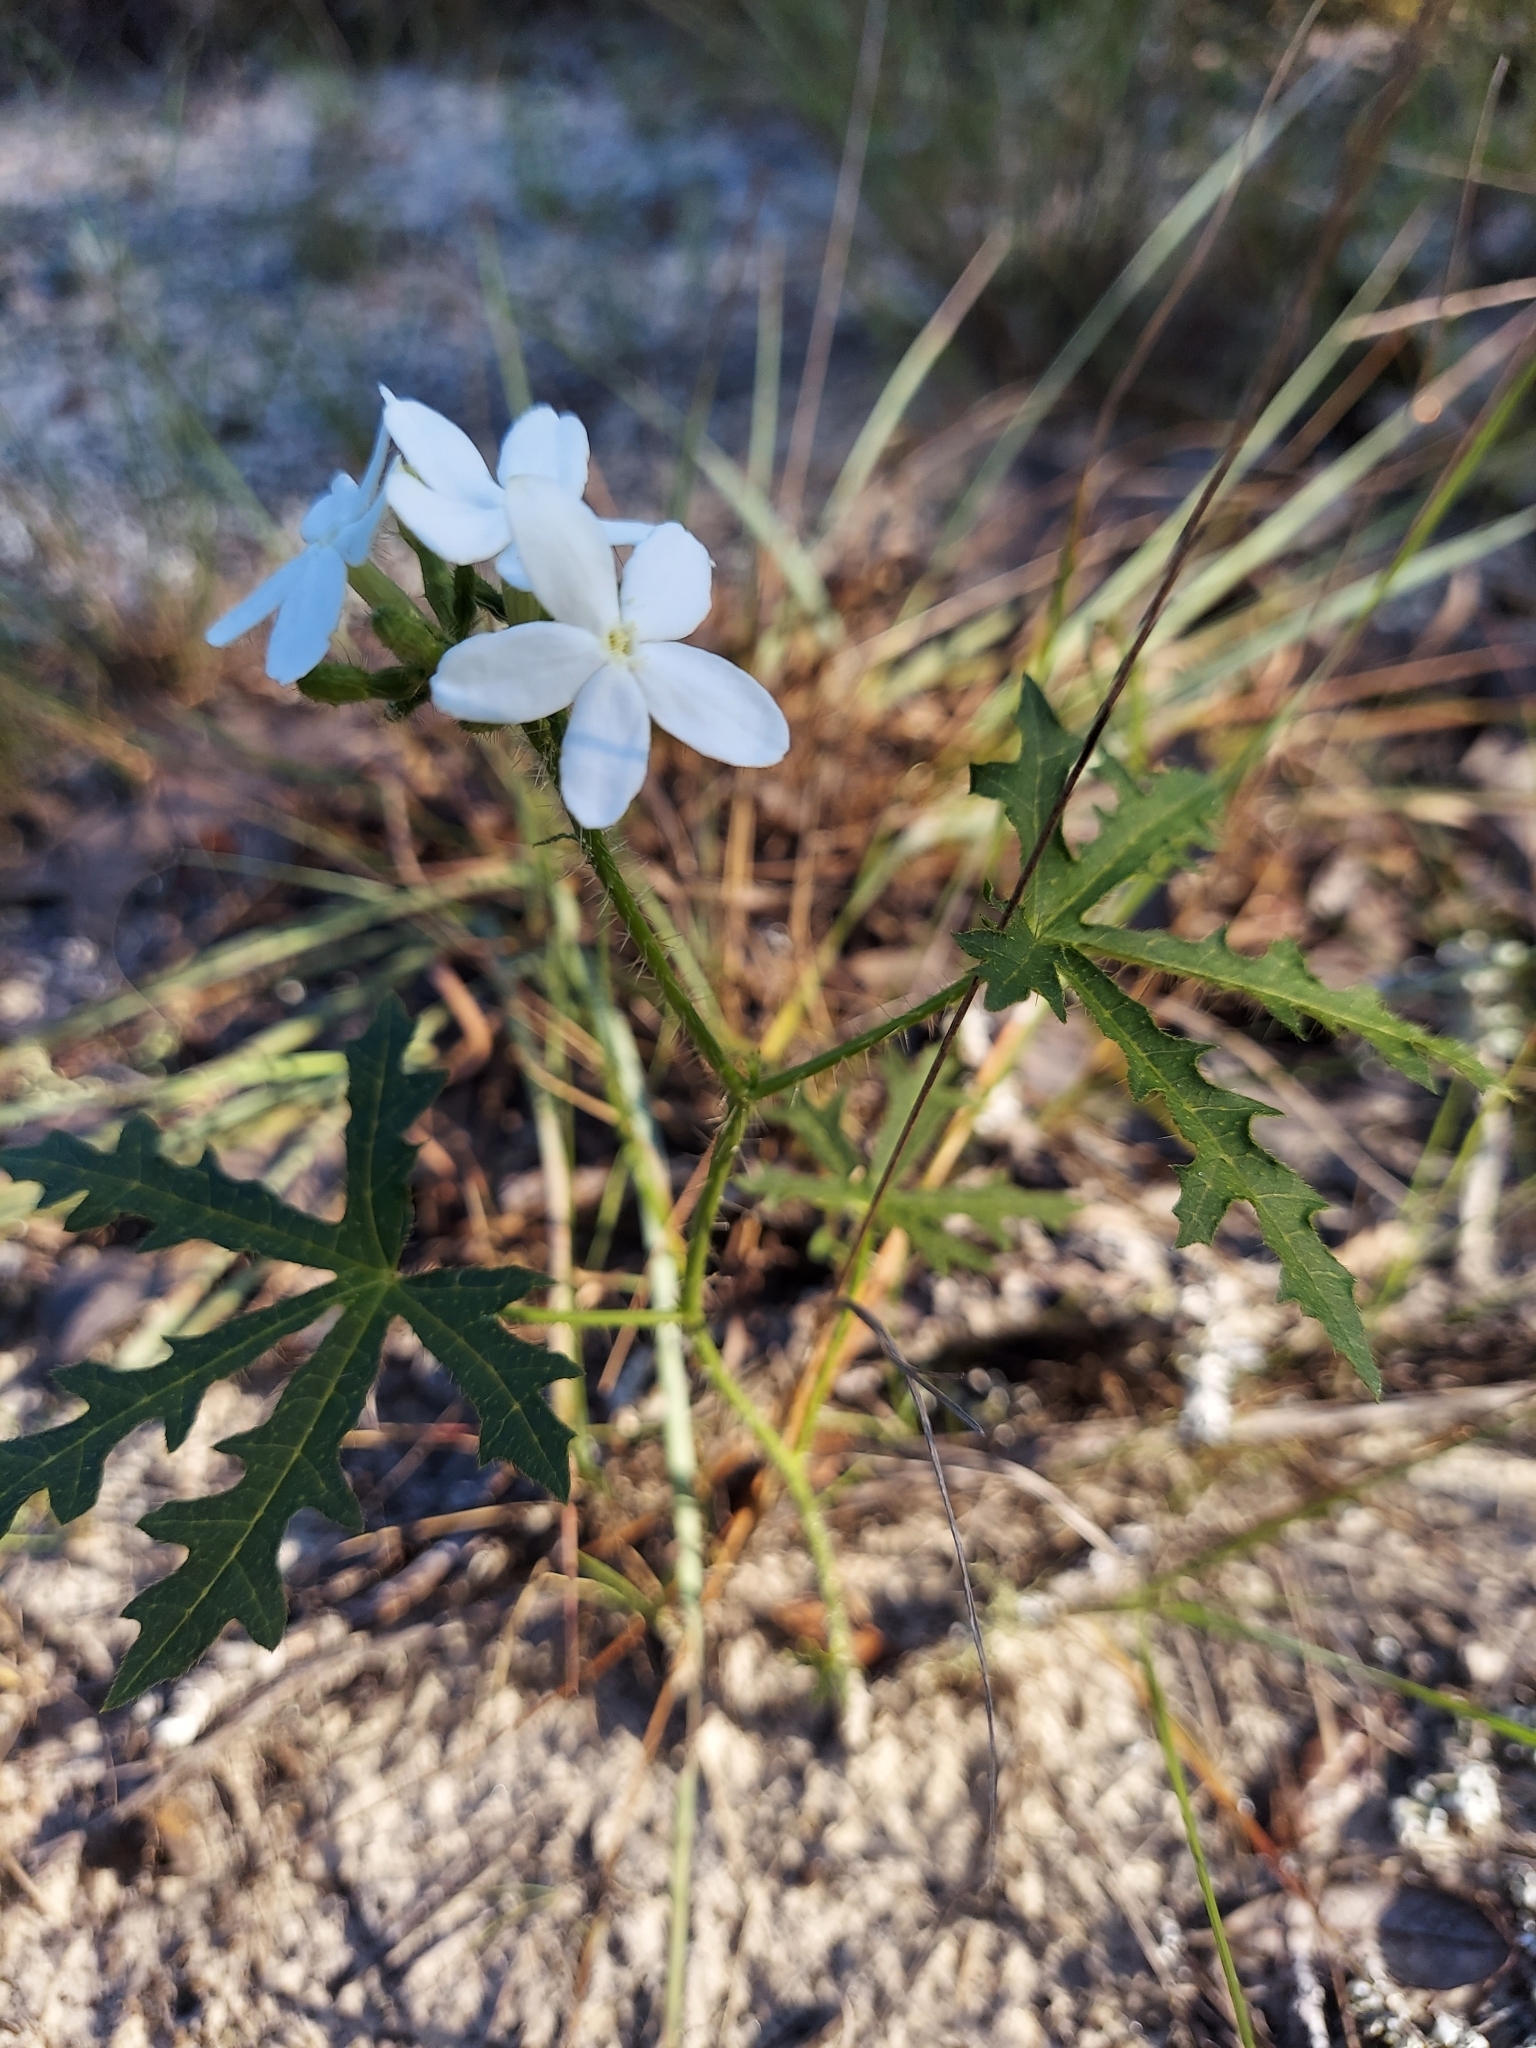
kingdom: Plantae
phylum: Tracheophyta
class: Magnoliopsida
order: Malpighiales
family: Euphorbiaceae
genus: Cnidoscolus
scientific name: Cnidoscolus stimulosus
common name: Bull-nettle
